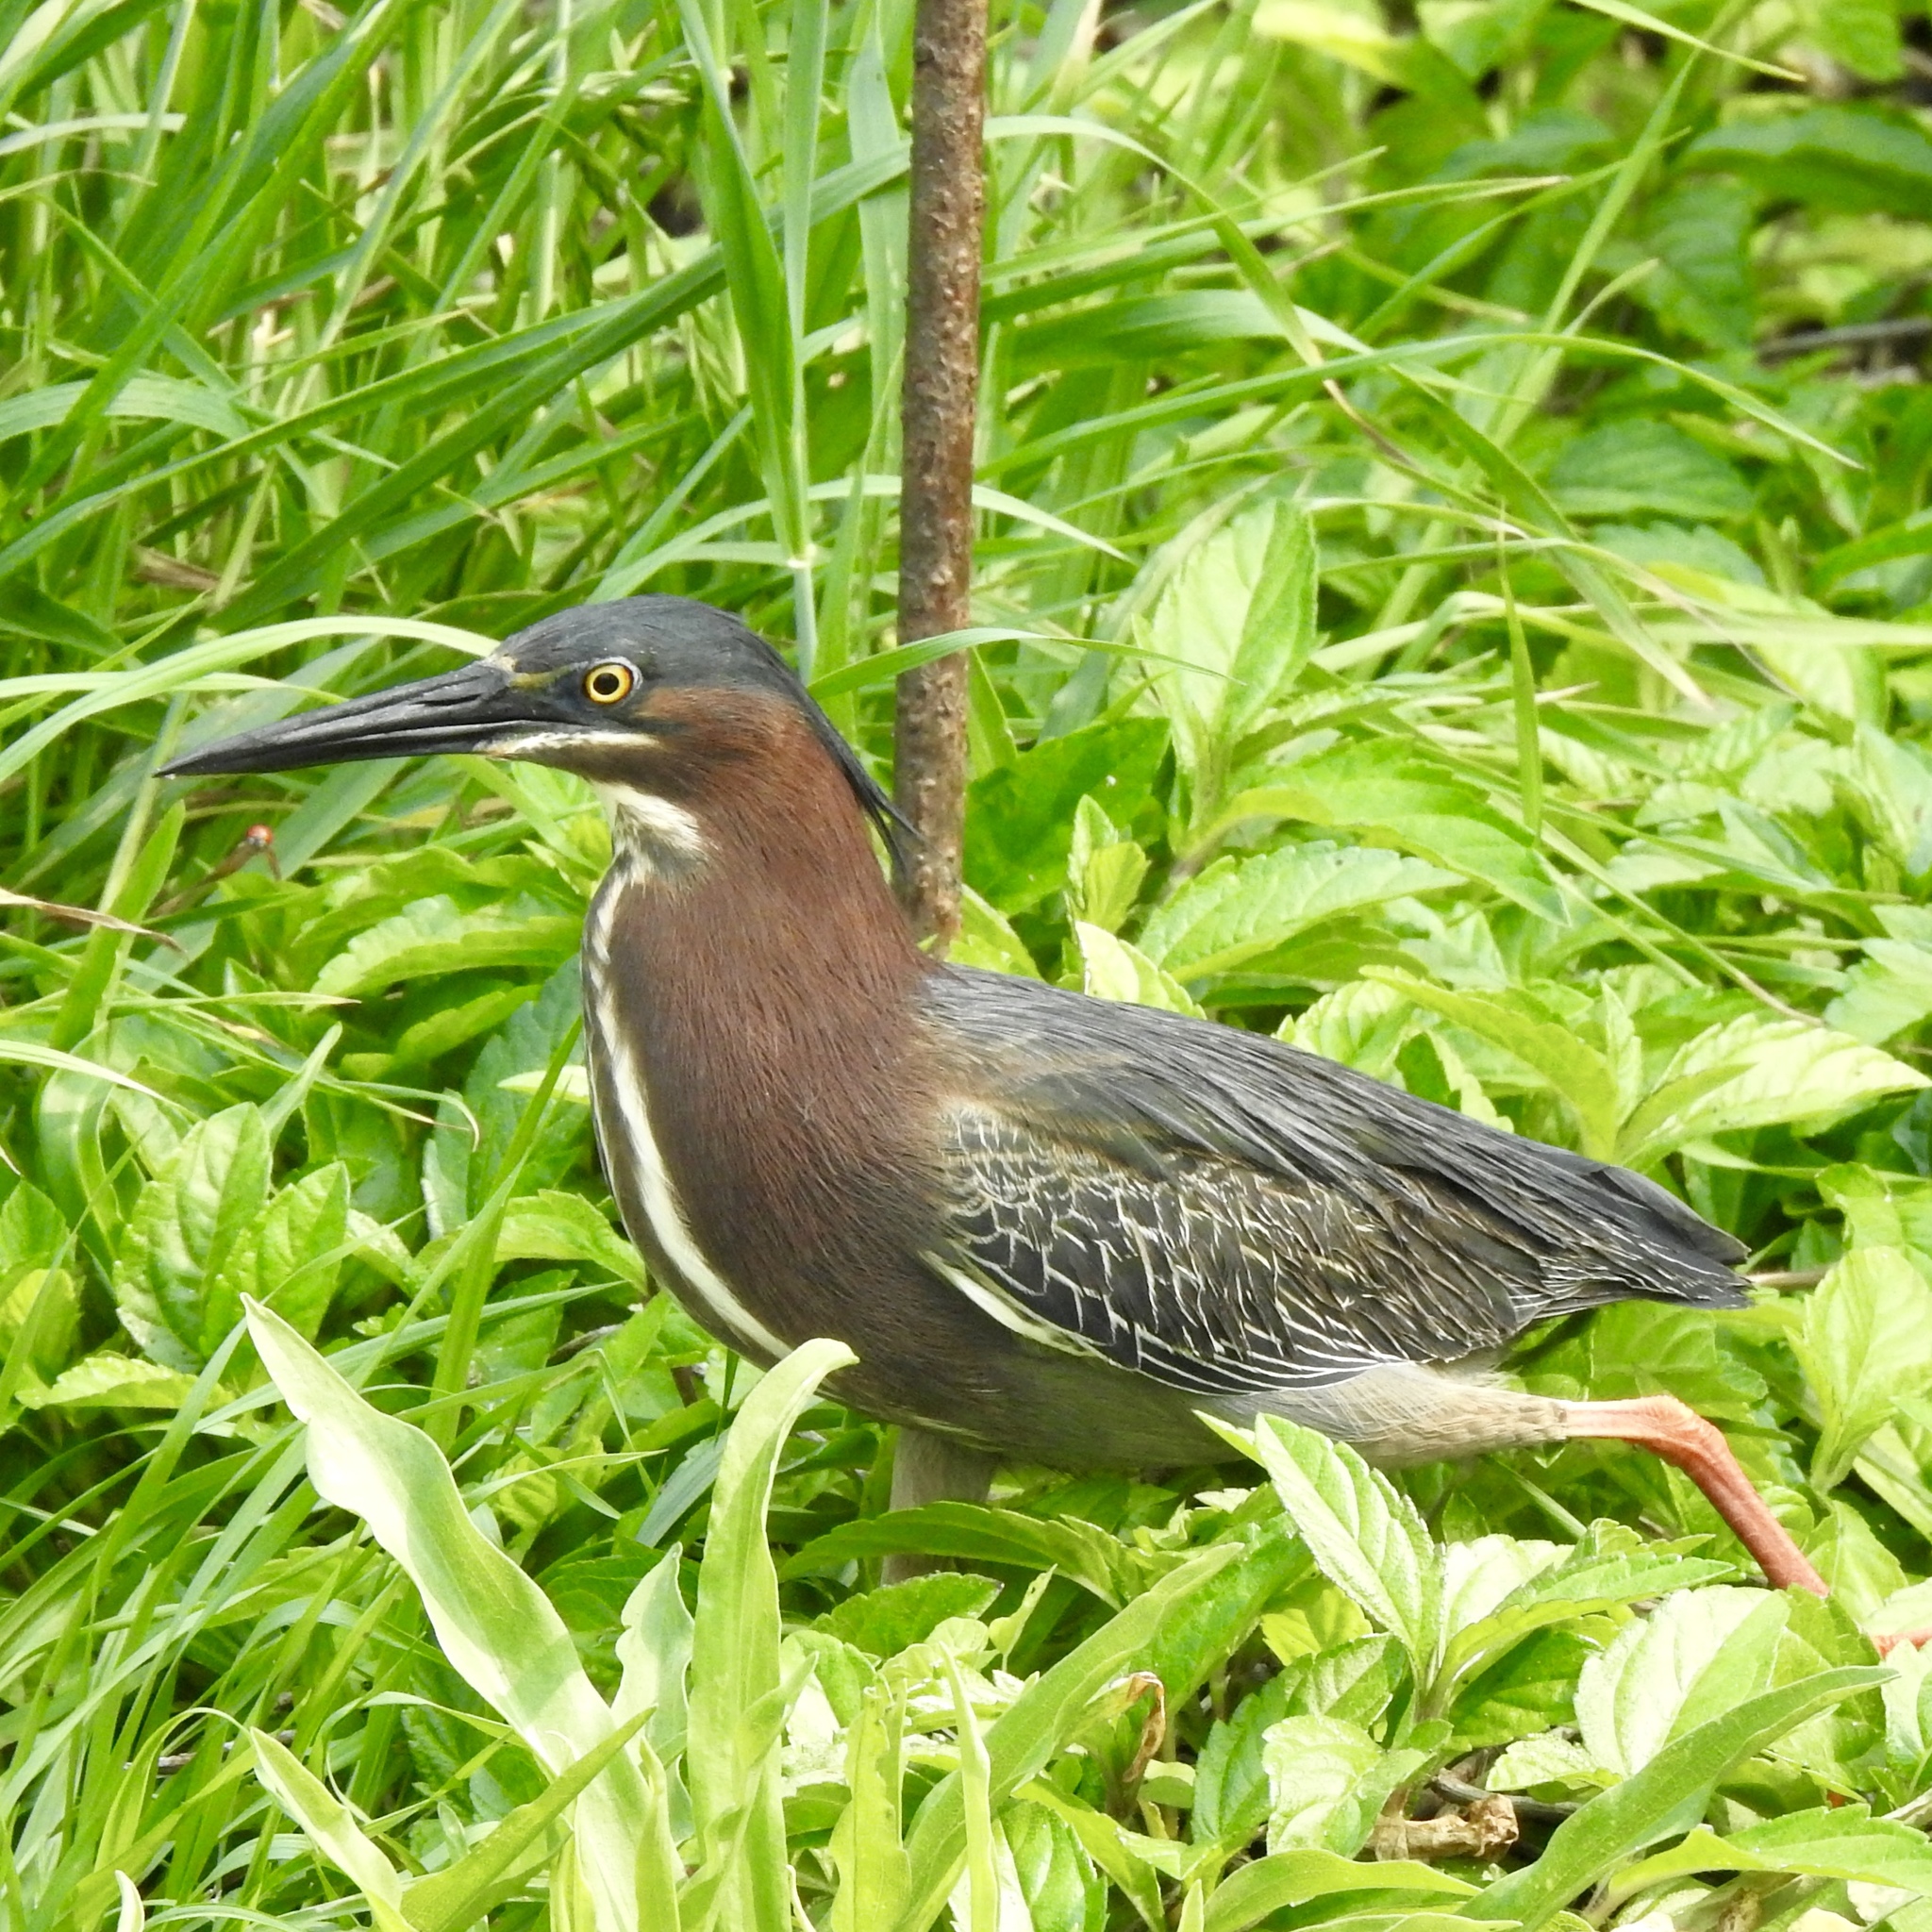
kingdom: Animalia
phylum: Chordata
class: Aves
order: Pelecaniformes
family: Ardeidae
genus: Butorides
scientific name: Butorides virescens
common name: Green heron
